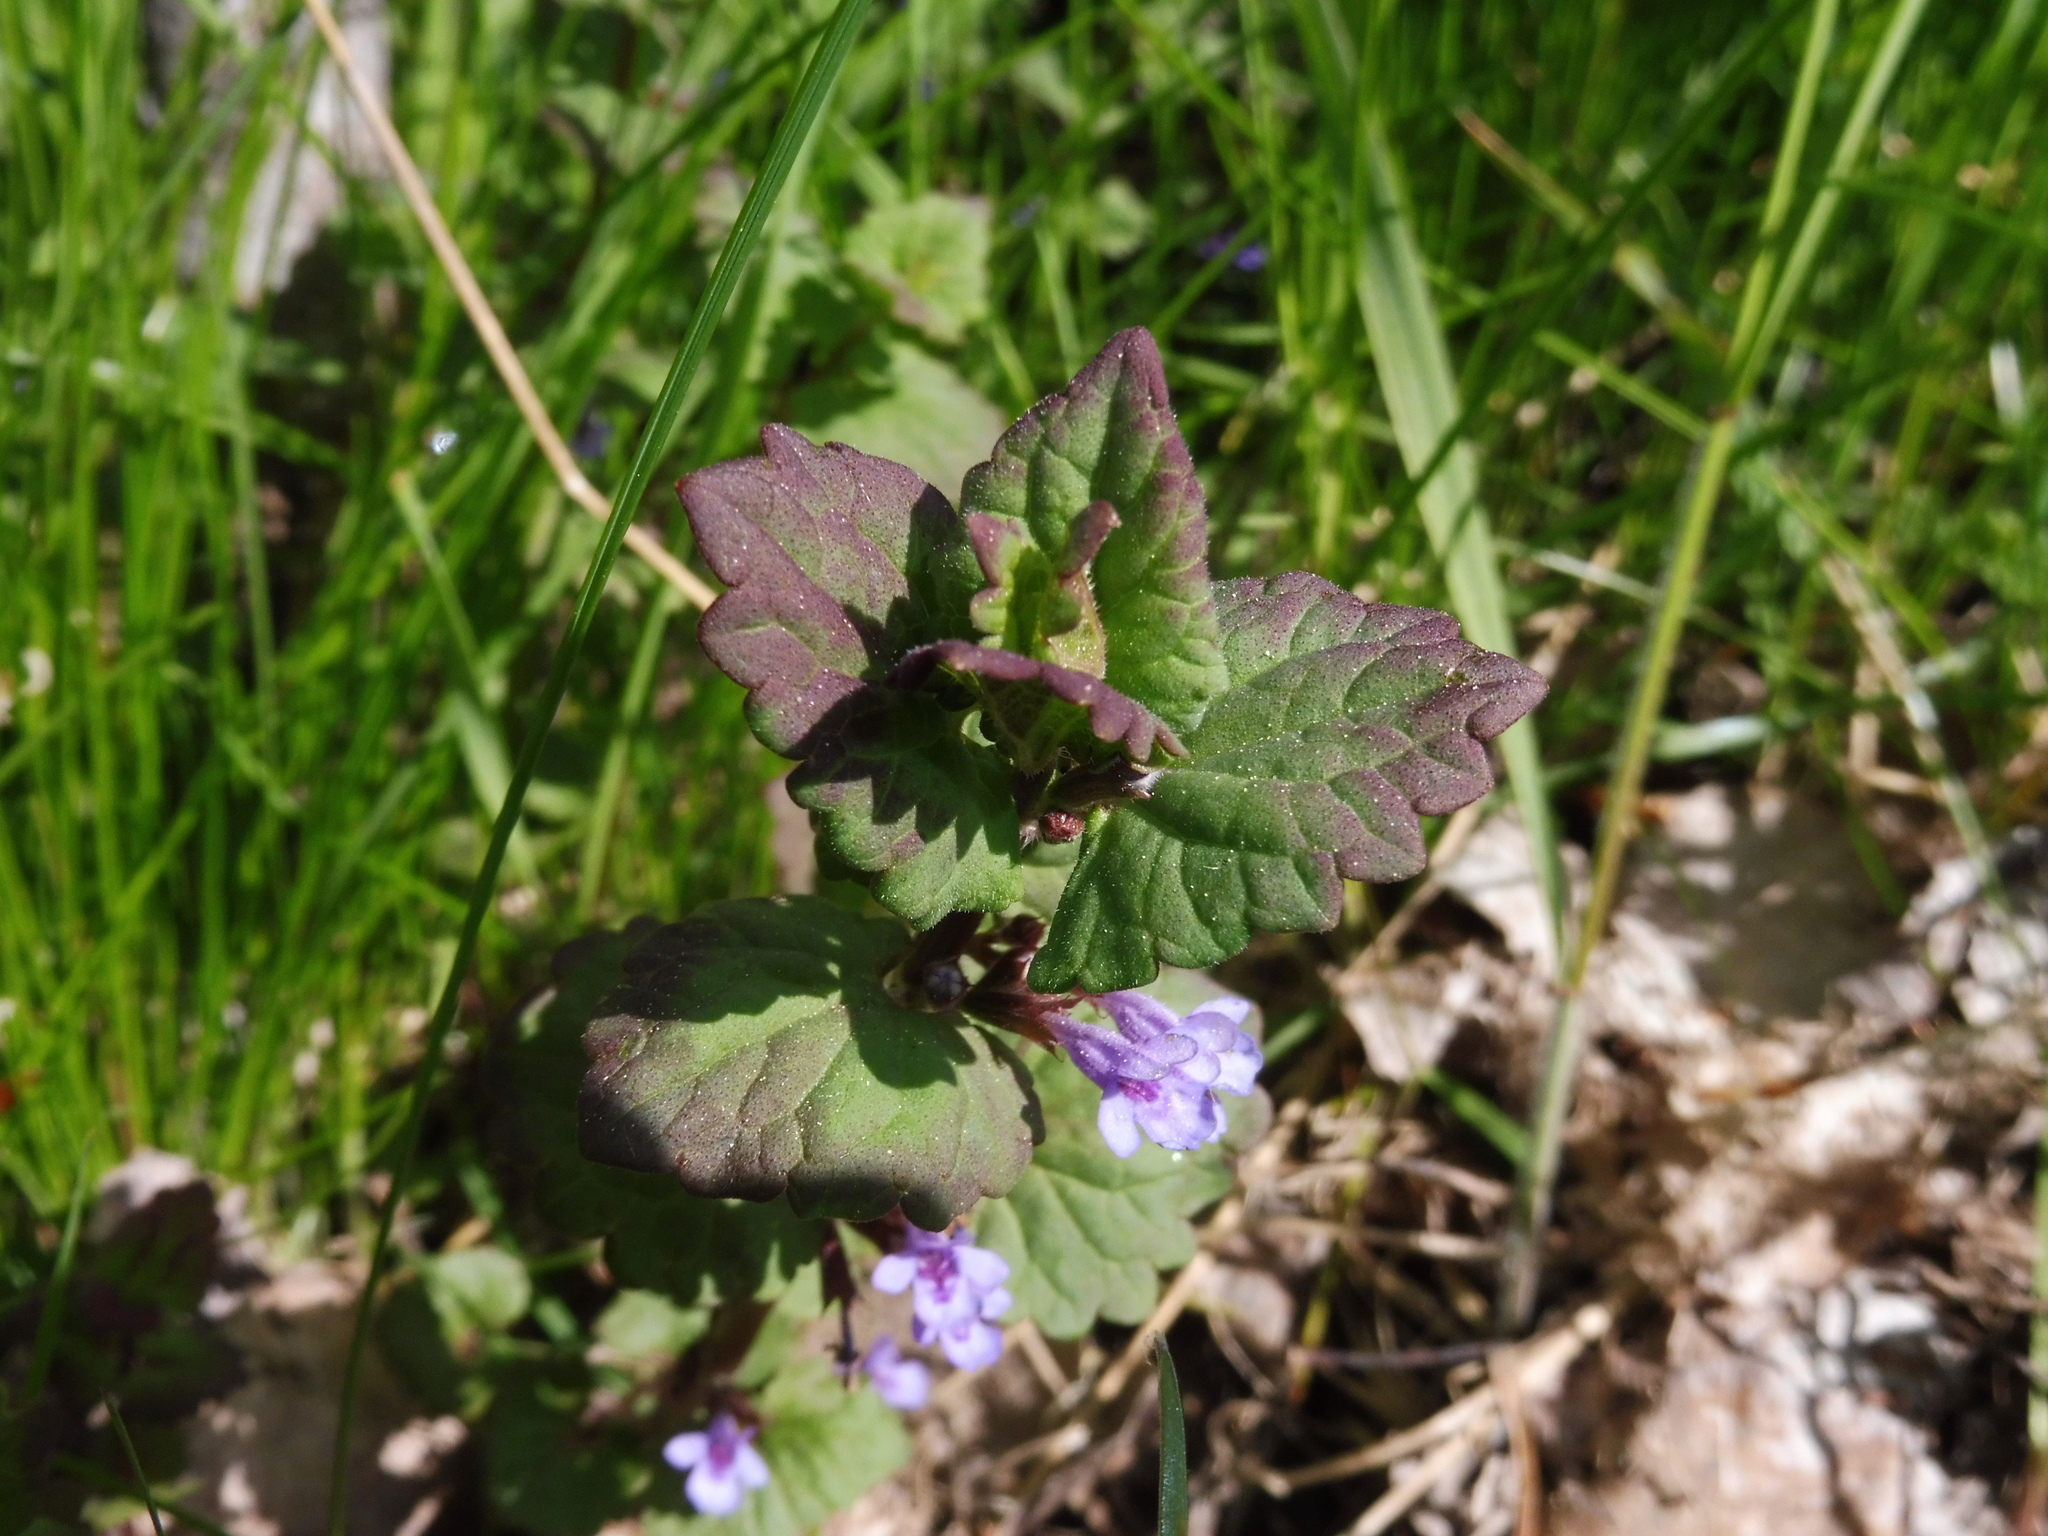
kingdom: Plantae
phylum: Tracheophyta
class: Magnoliopsida
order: Lamiales
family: Lamiaceae
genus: Glechoma
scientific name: Glechoma hederacea
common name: Ground ivy
